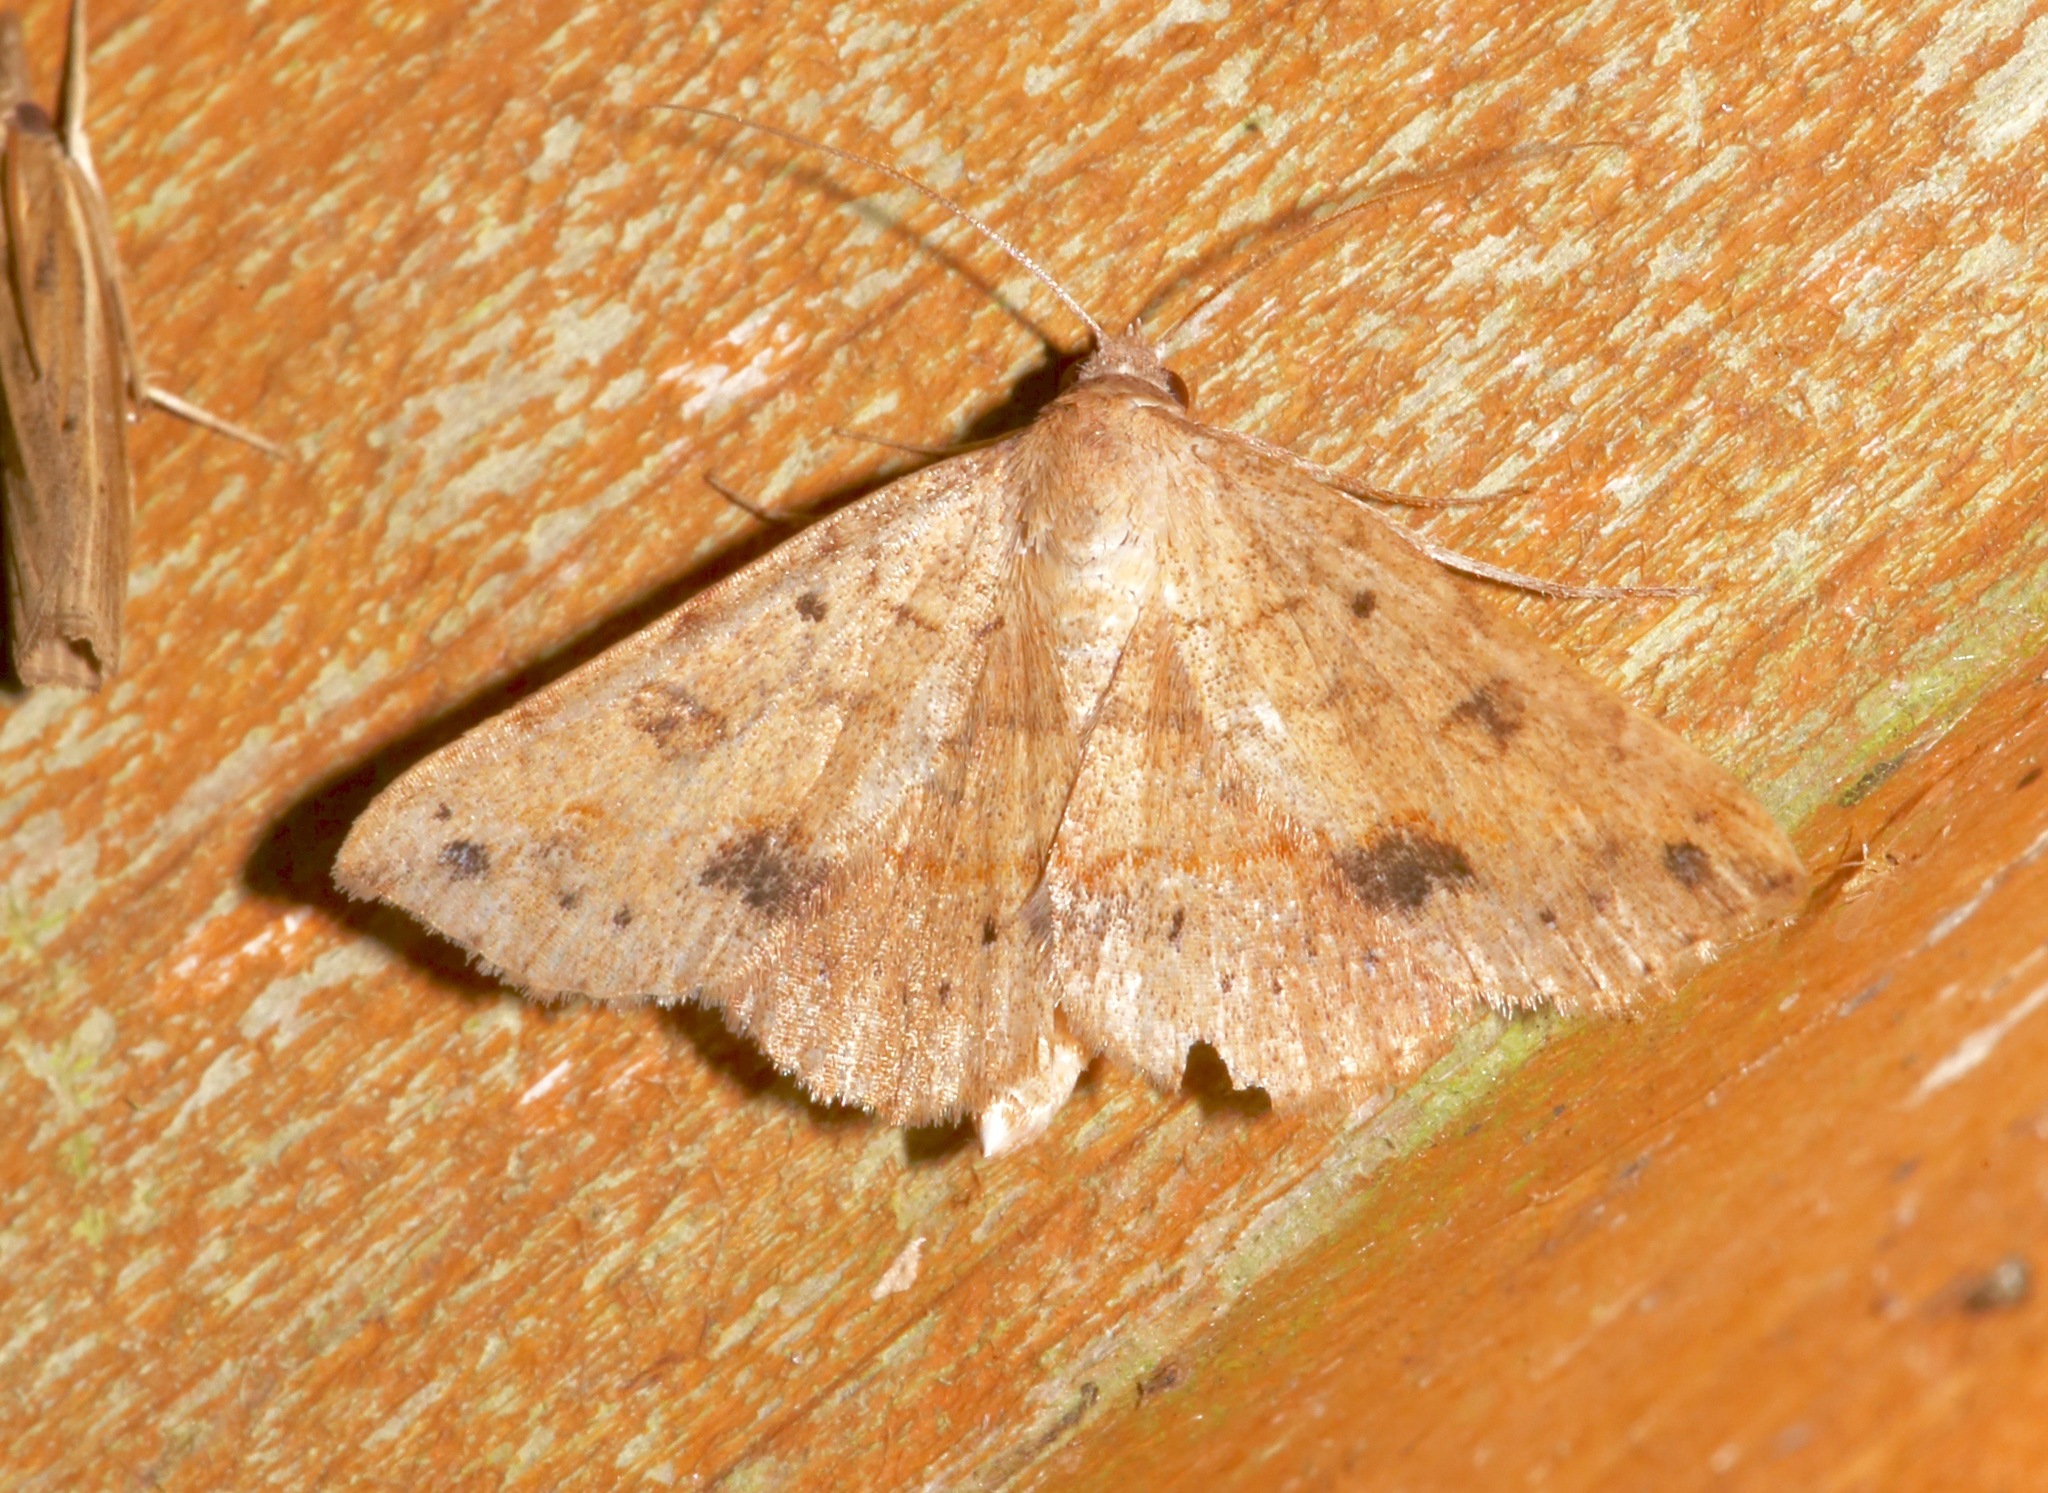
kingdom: Animalia
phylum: Arthropoda
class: Insecta
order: Lepidoptera
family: Erebidae
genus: Hemeroplanis
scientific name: Hemeroplanis scopulepes
